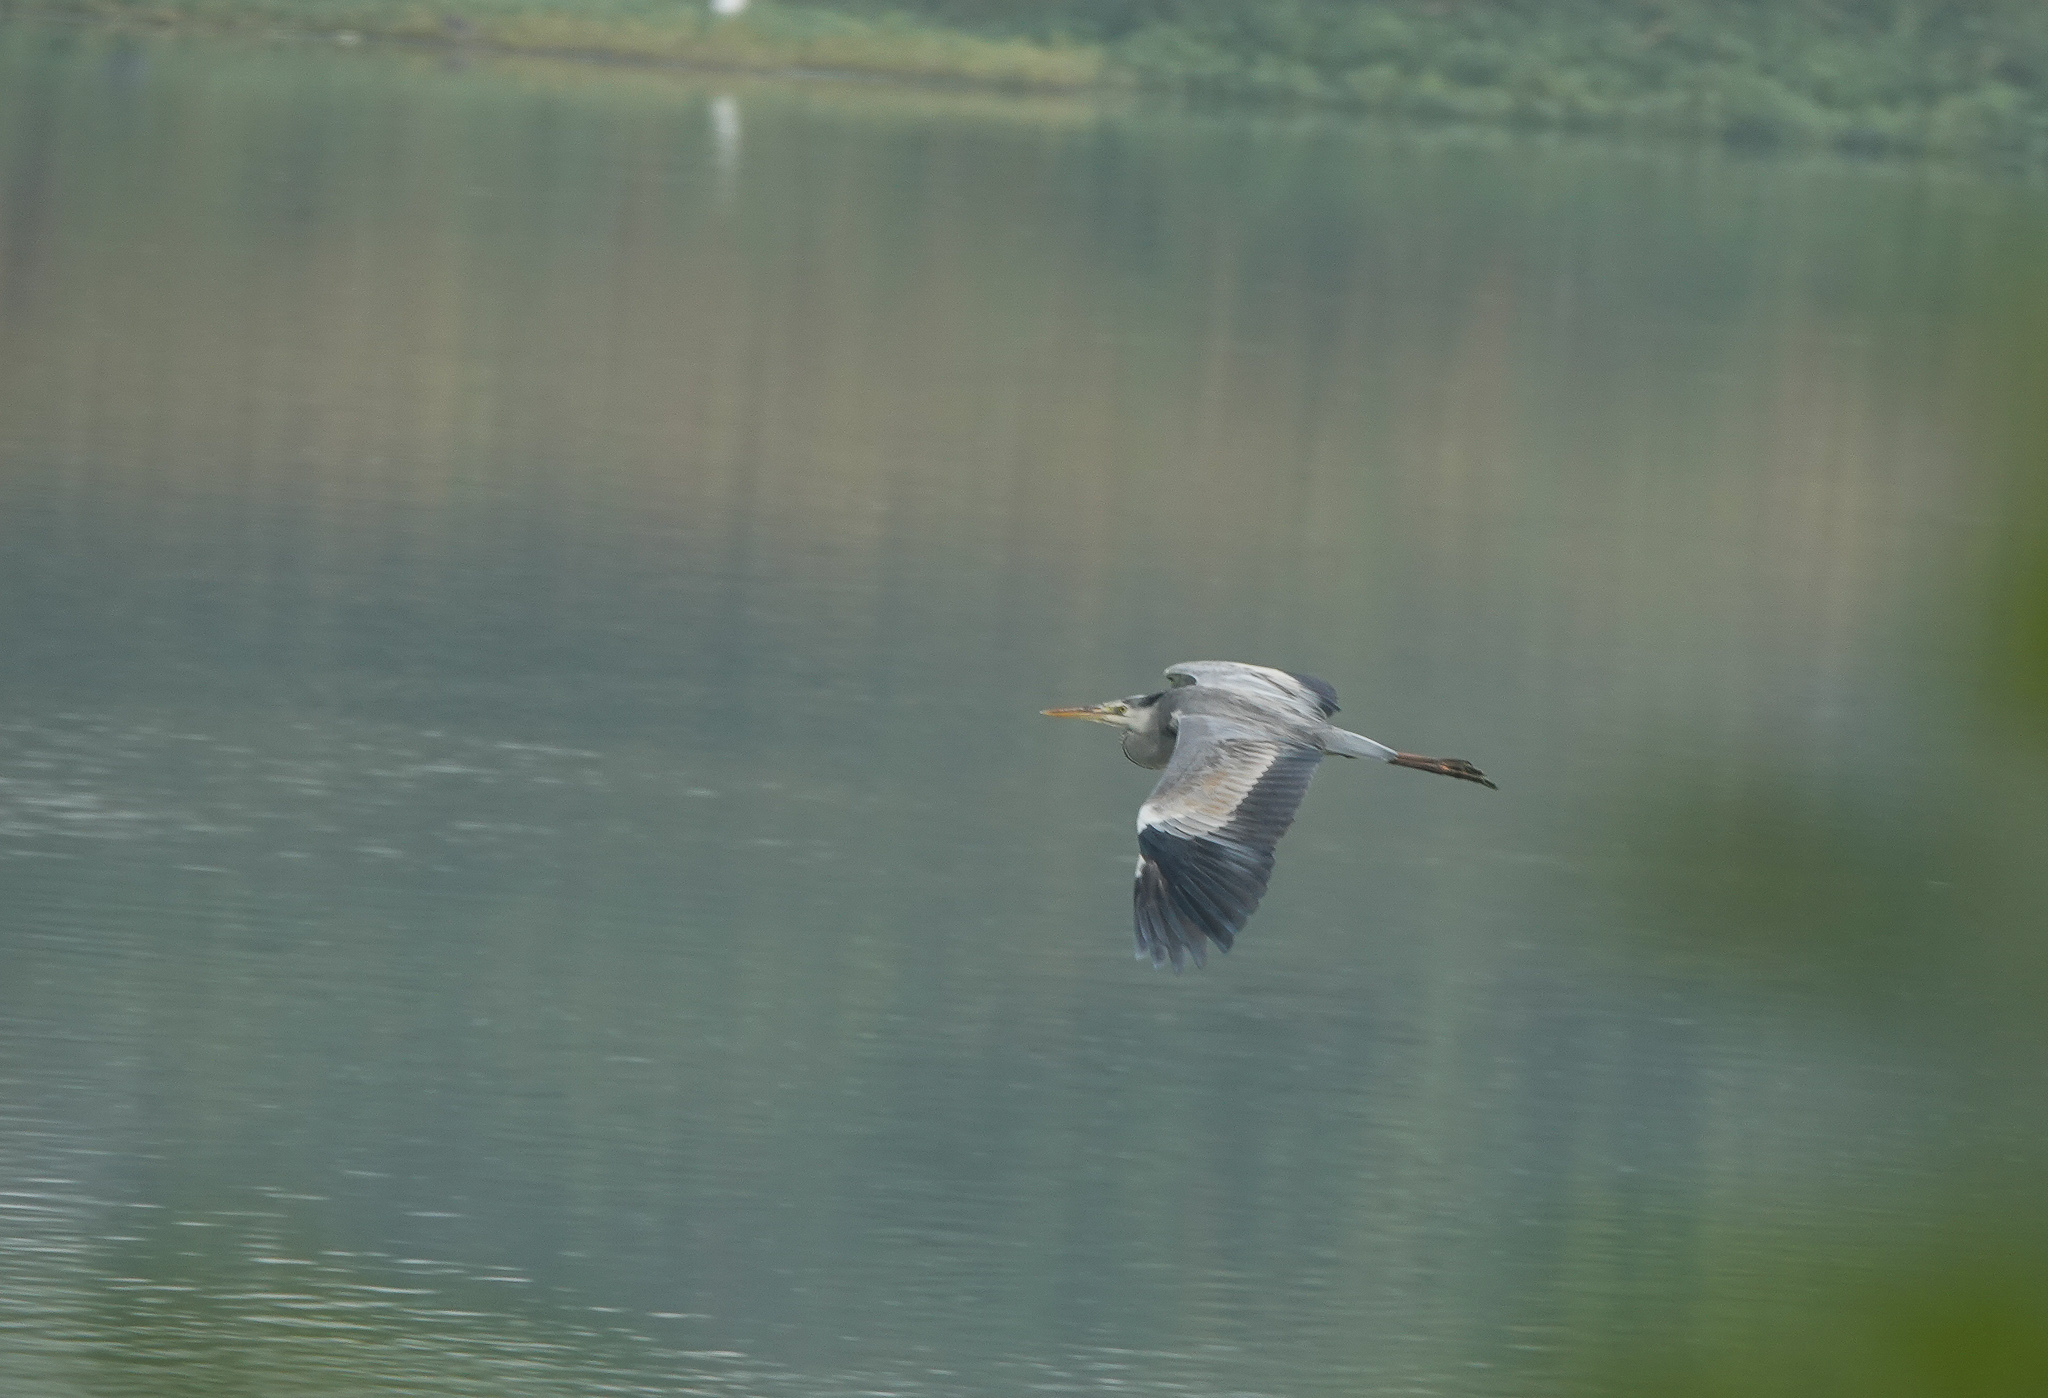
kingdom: Animalia
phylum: Chordata
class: Aves
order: Pelecaniformes
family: Ardeidae
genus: Ardea
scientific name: Ardea cinerea
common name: Grey heron
